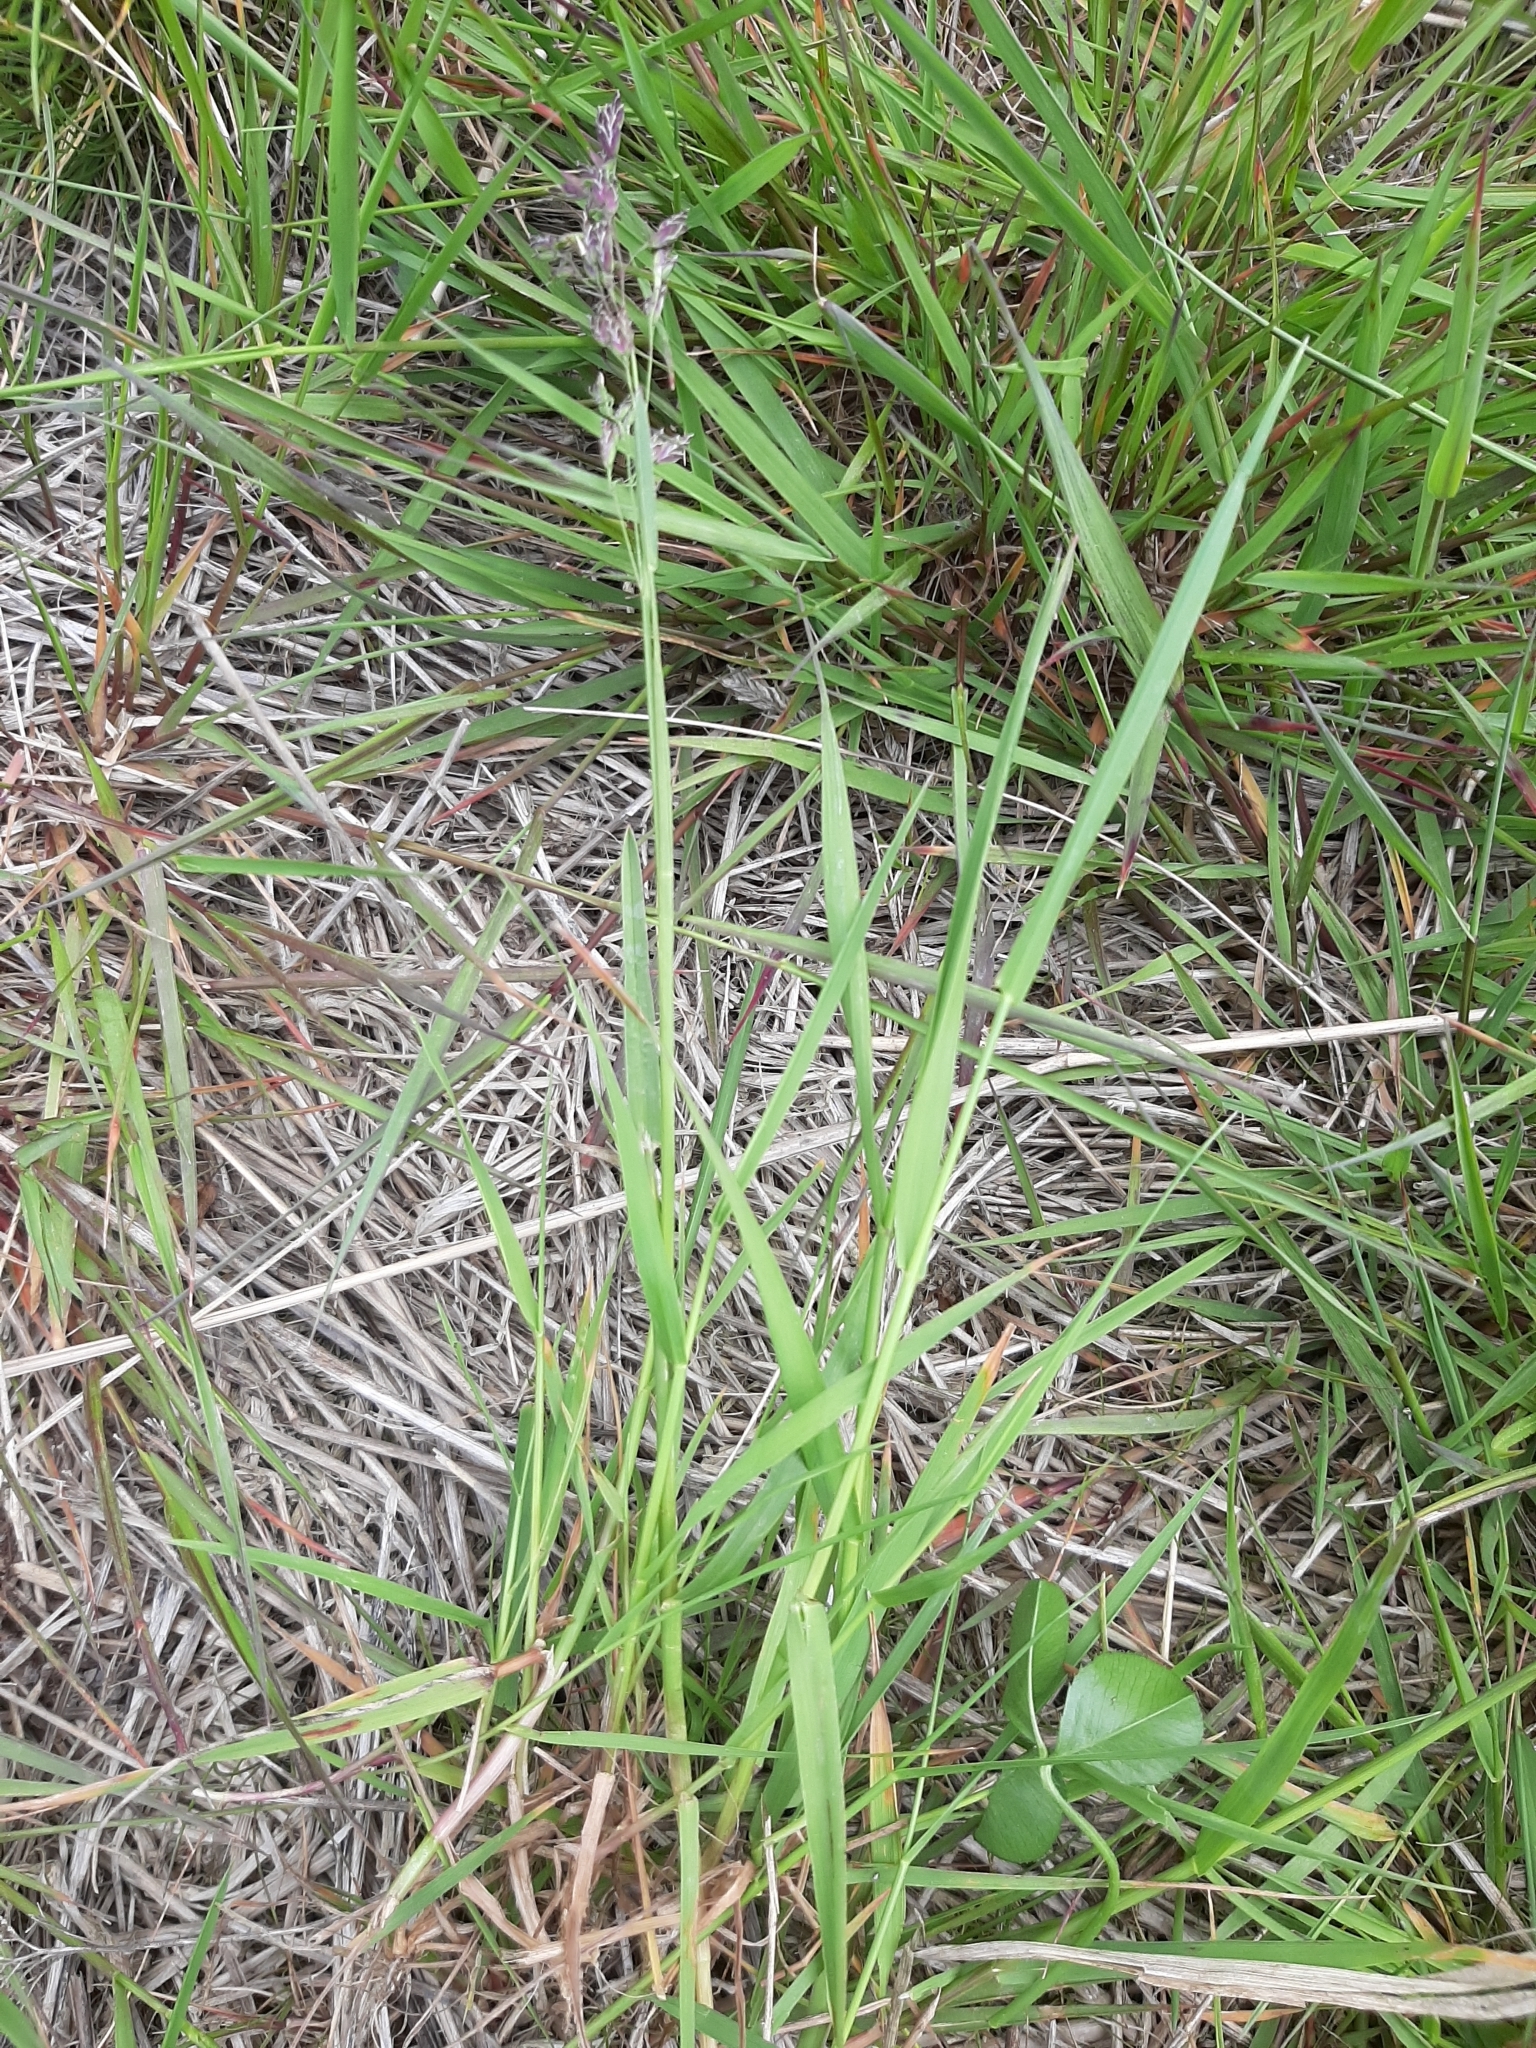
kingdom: Plantae
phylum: Tracheophyta
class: Liliopsida
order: Poales
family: Poaceae
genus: Poa
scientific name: Poa pratensis
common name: Kentucky bluegrass
